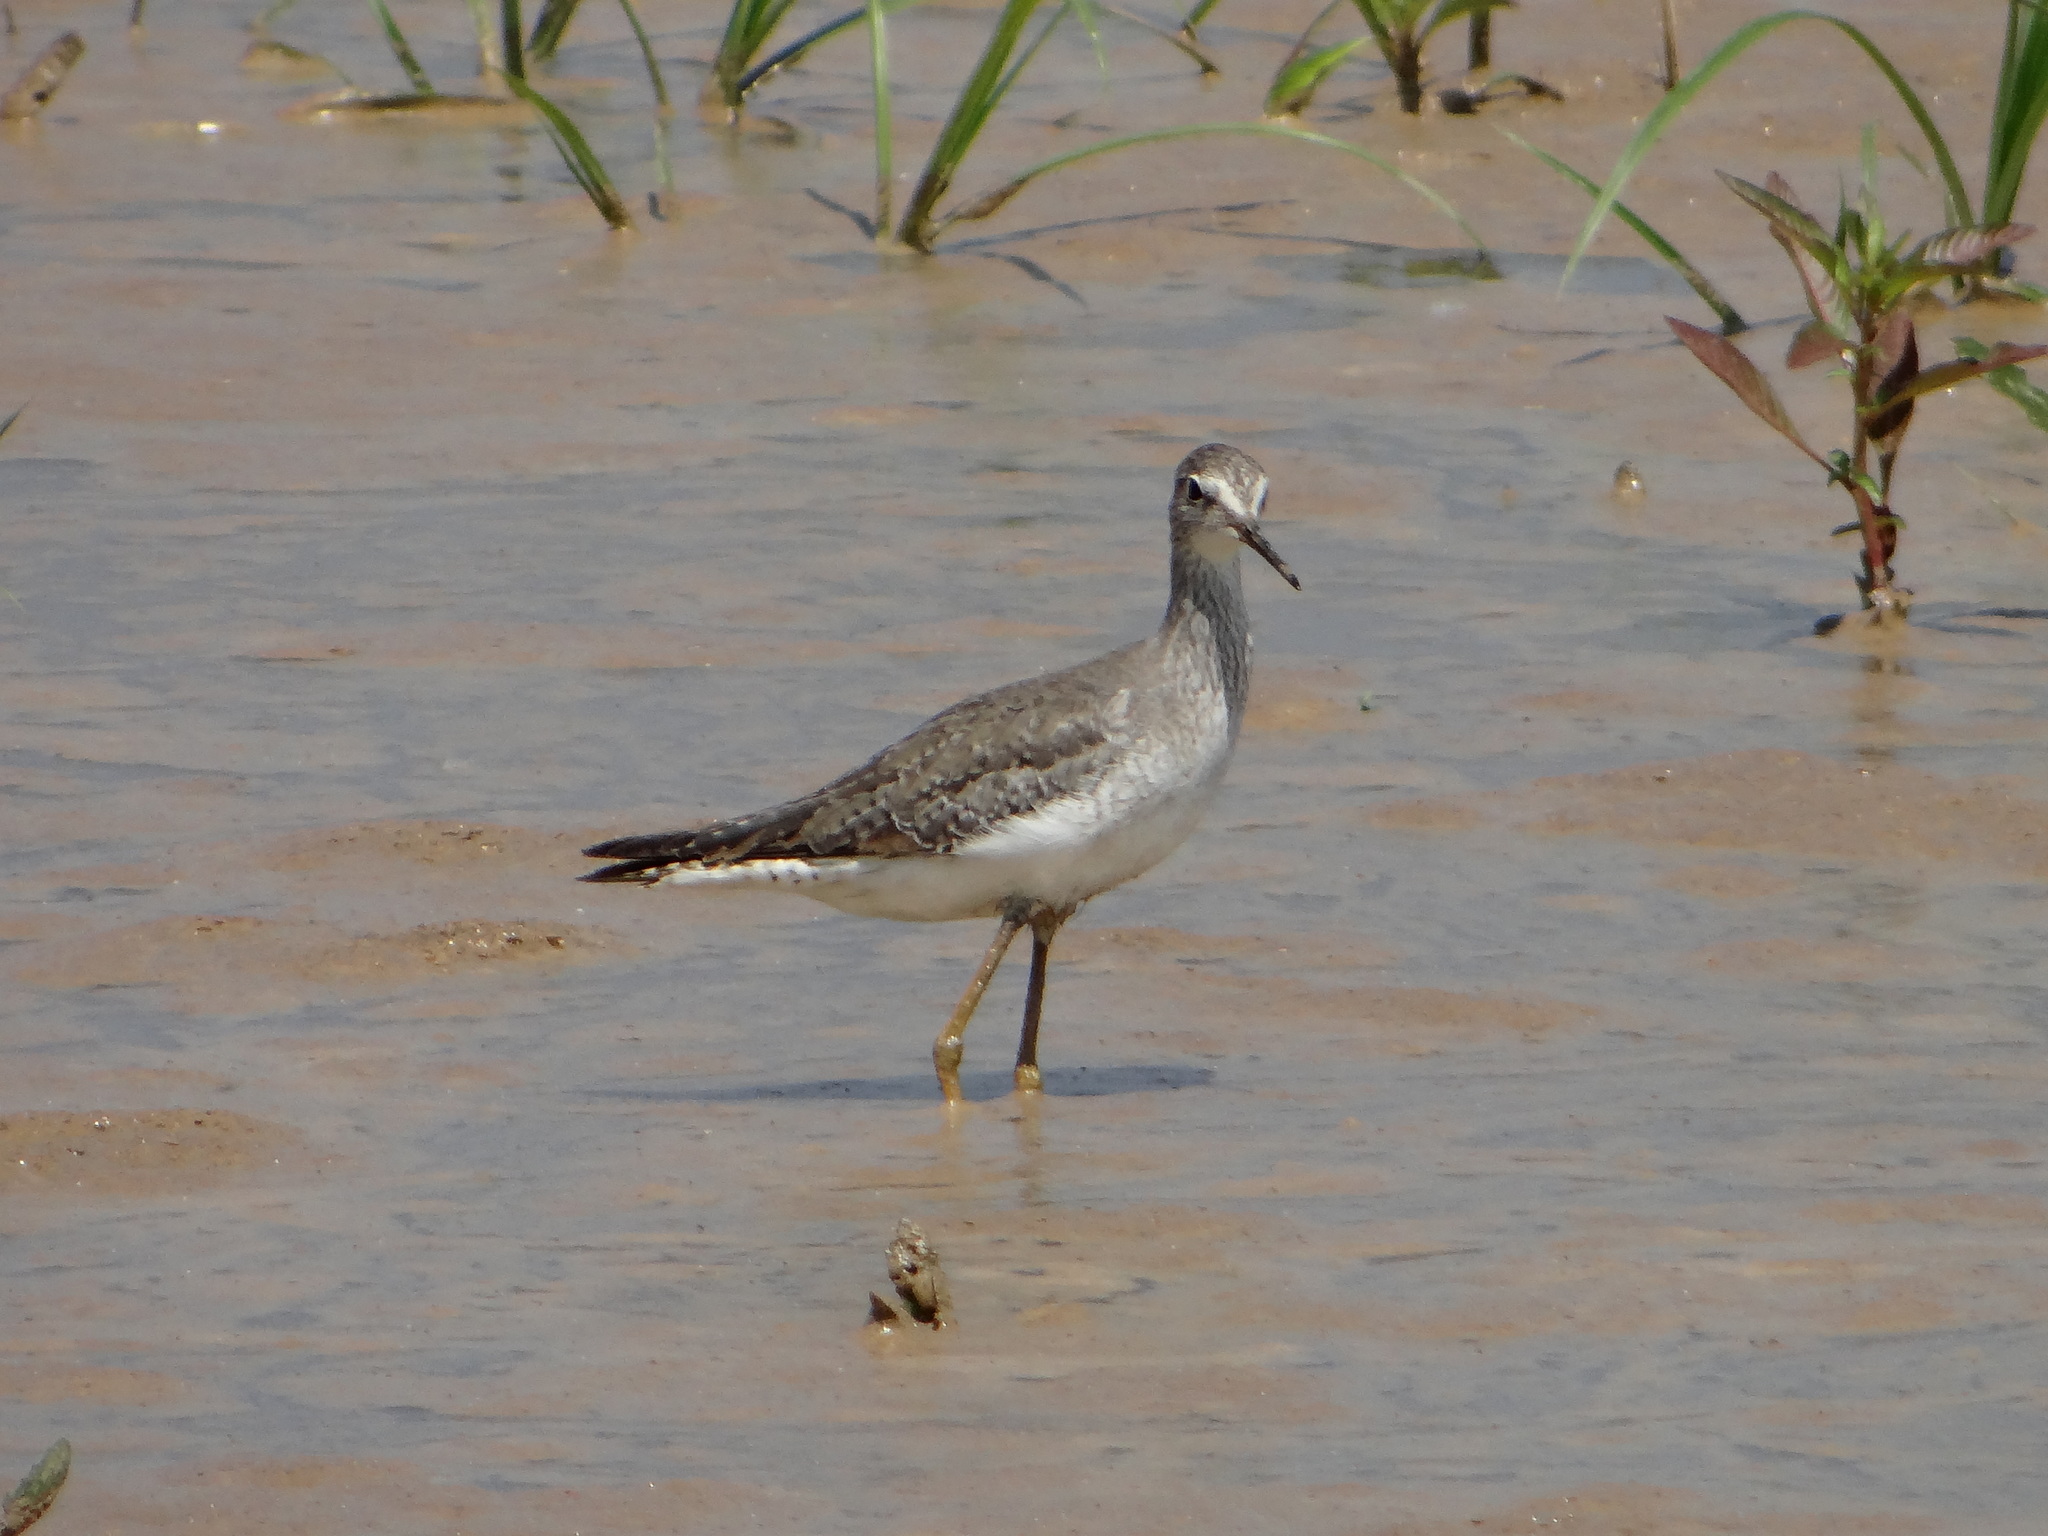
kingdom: Animalia
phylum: Chordata
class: Aves
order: Charadriiformes
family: Scolopacidae
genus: Tringa
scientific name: Tringa flavipes
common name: Lesser yellowlegs
